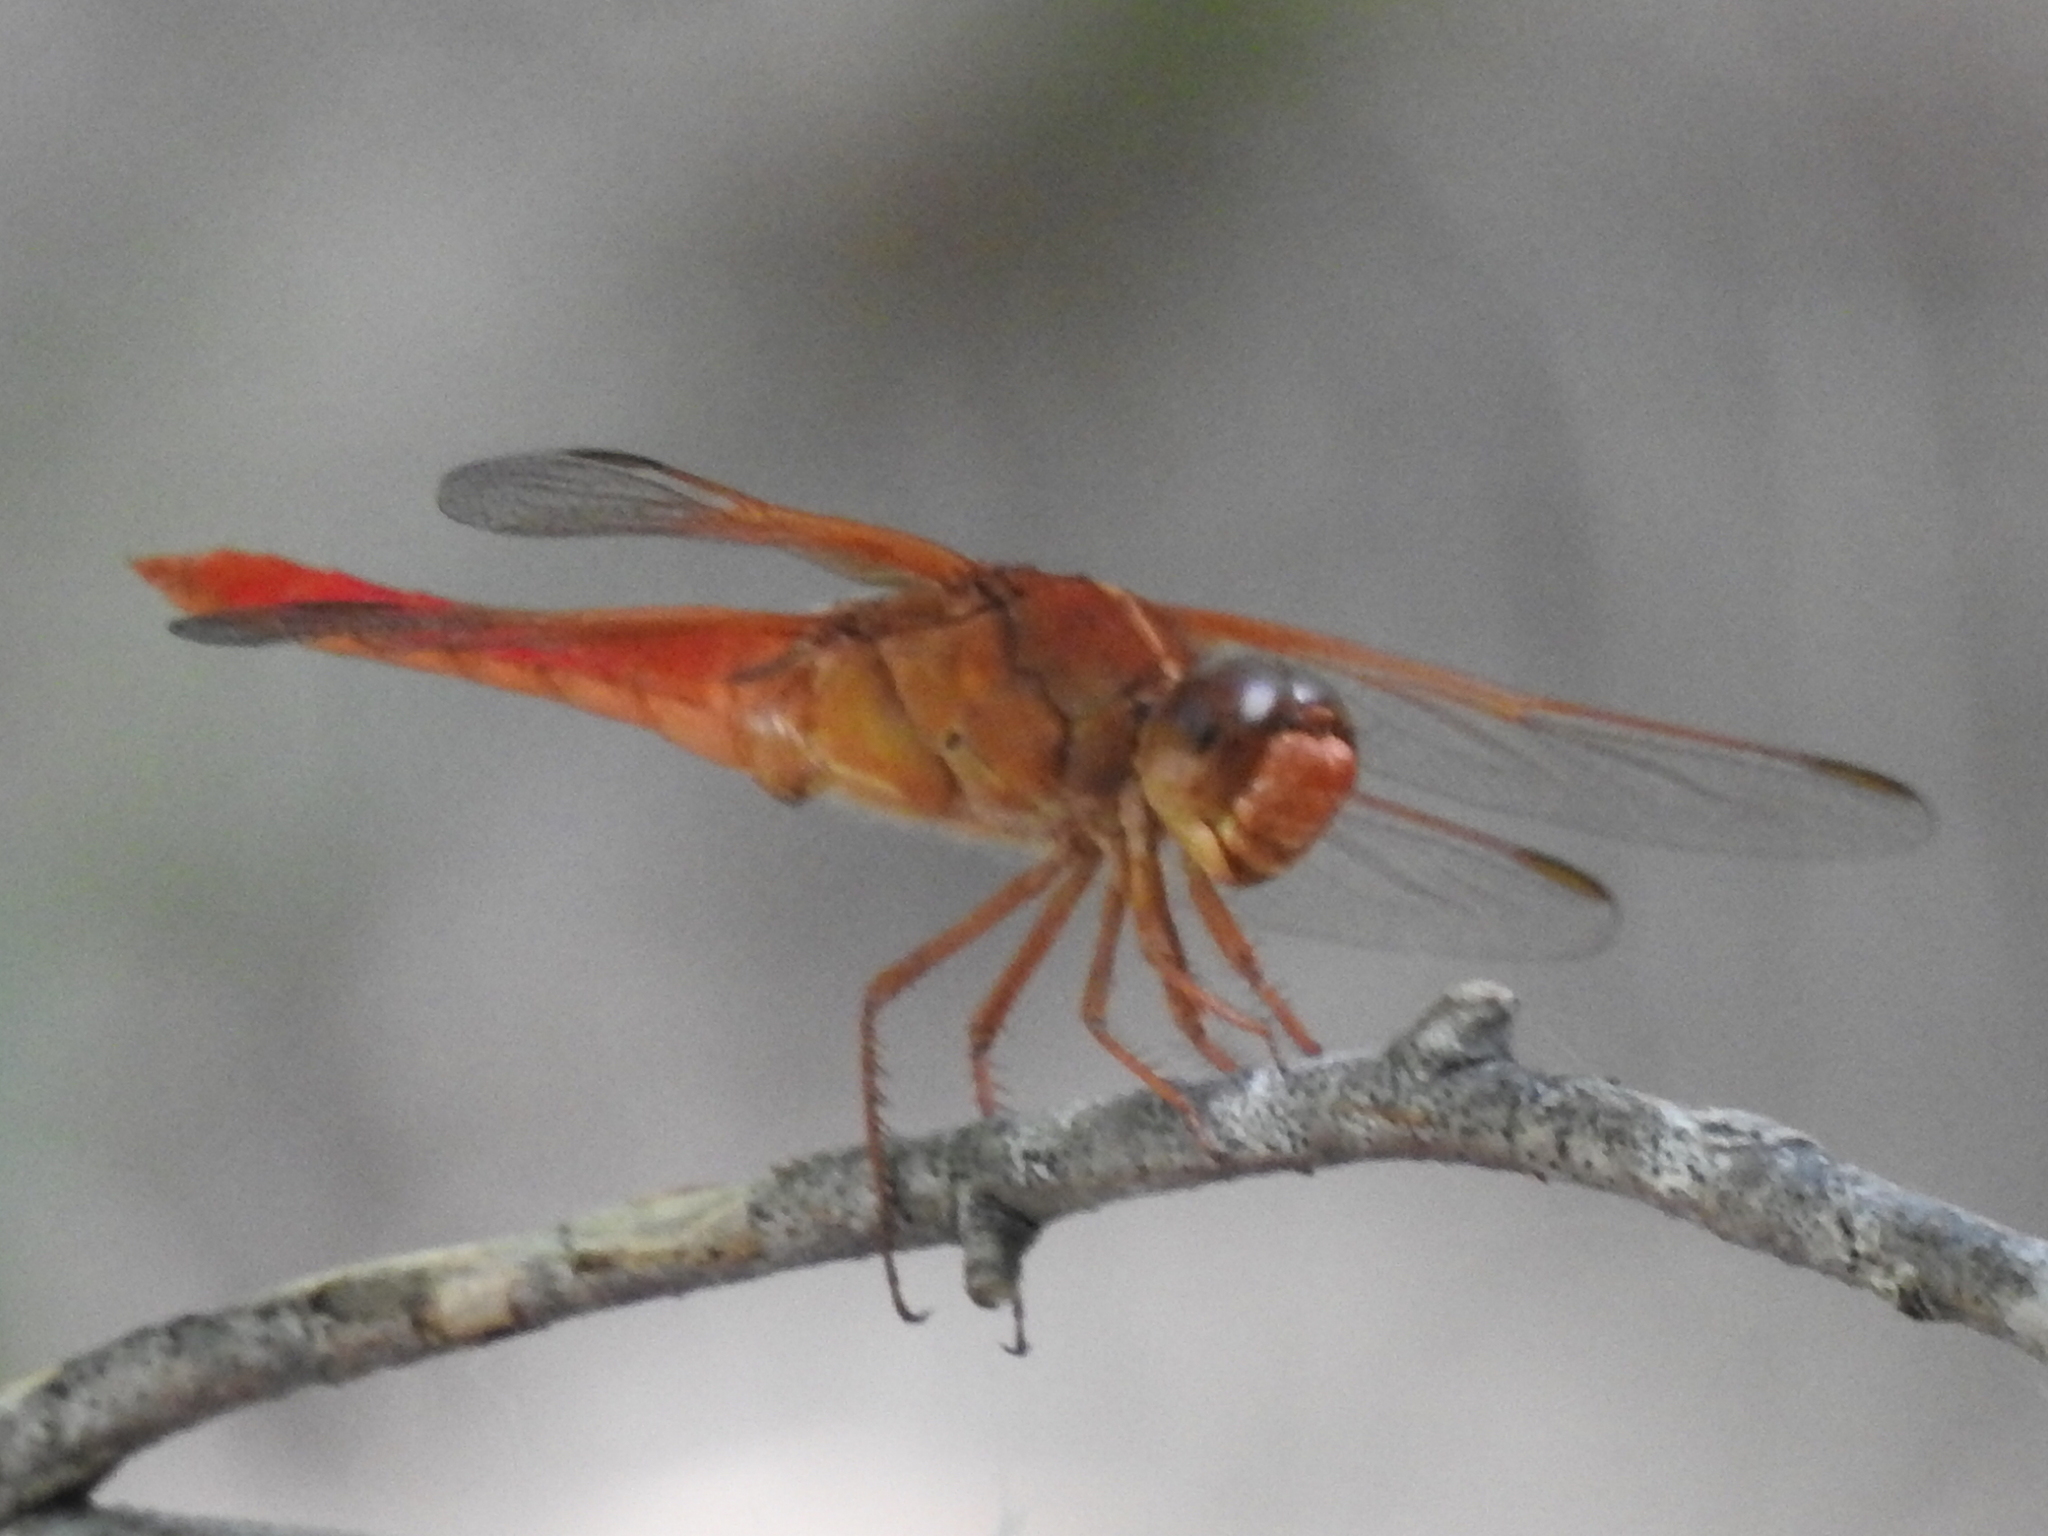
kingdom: Animalia
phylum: Arthropoda
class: Insecta
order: Odonata
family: Libellulidae
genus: Libellula
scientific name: Libellula croceipennis
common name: Neon skimmer
